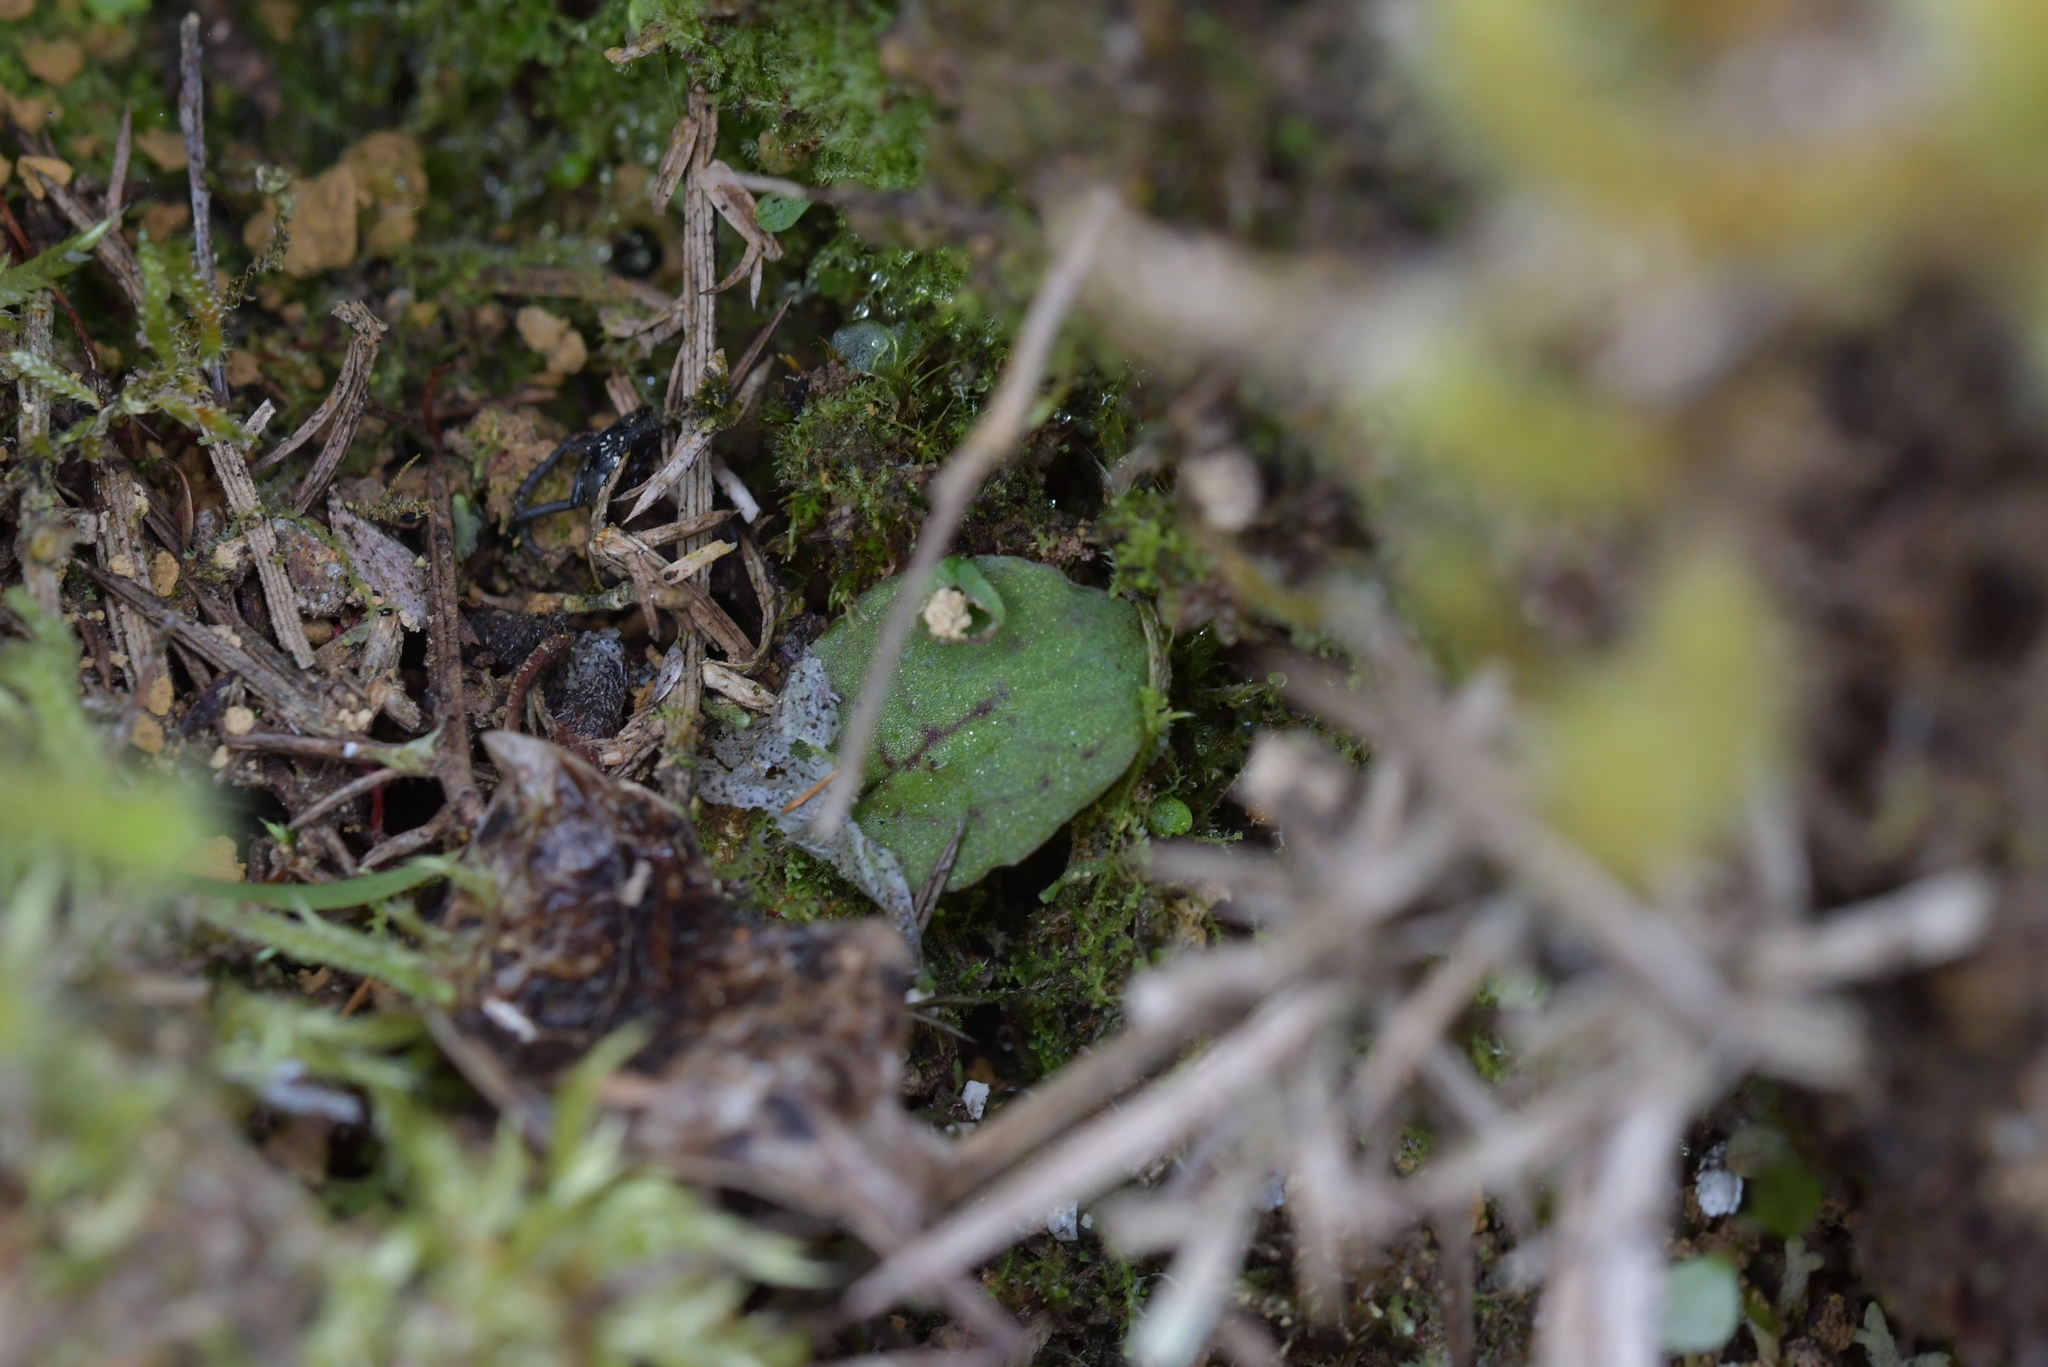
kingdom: Plantae
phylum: Tracheophyta
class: Liliopsida
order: Asparagales
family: Orchidaceae
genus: Corybas
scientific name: Corybas oblongus
